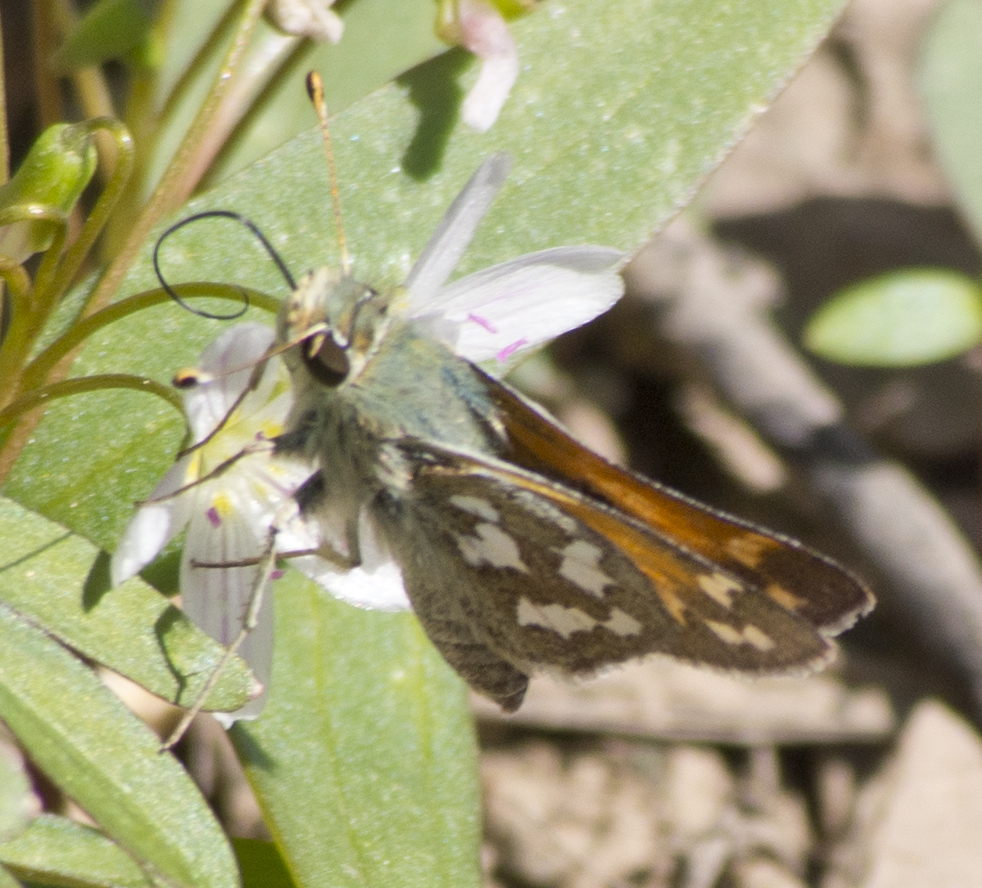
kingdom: Animalia
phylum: Arthropoda
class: Insecta
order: Lepidoptera
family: Hesperiidae
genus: Hesperia
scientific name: Hesperia juba
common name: Juba skipper
